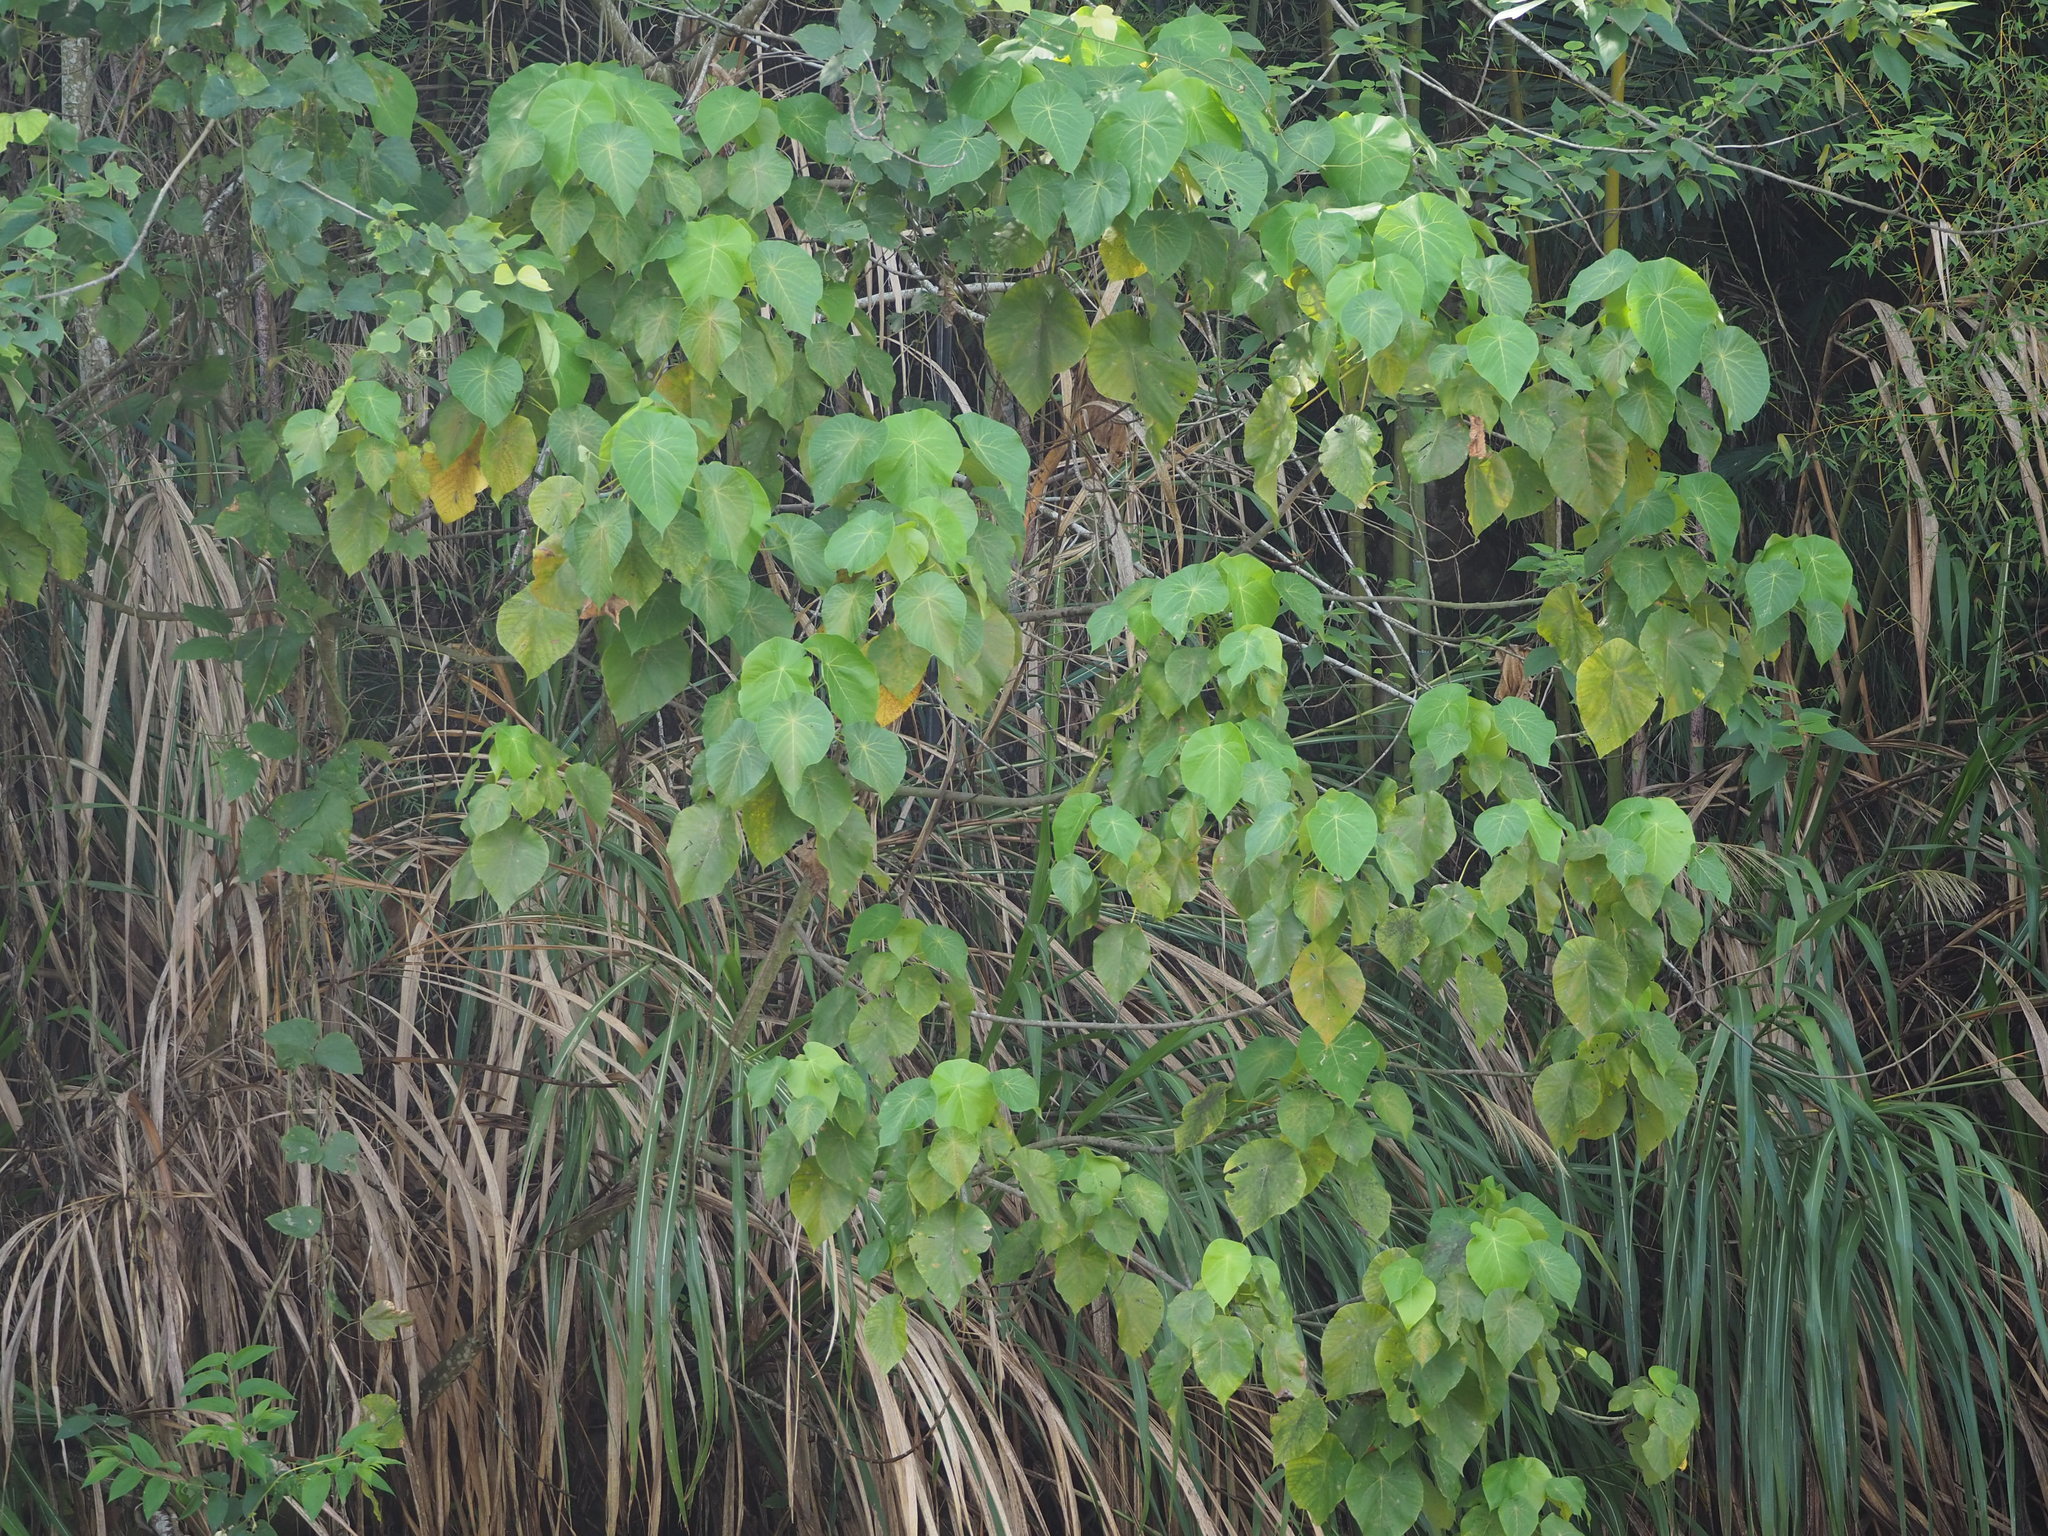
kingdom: Plantae
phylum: Tracheophyta
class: Magnoliopsida
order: Malpighiales
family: Euphorbiaceae
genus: Macaranga
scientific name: Macaranga tanarius
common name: Parasol leaf tree
